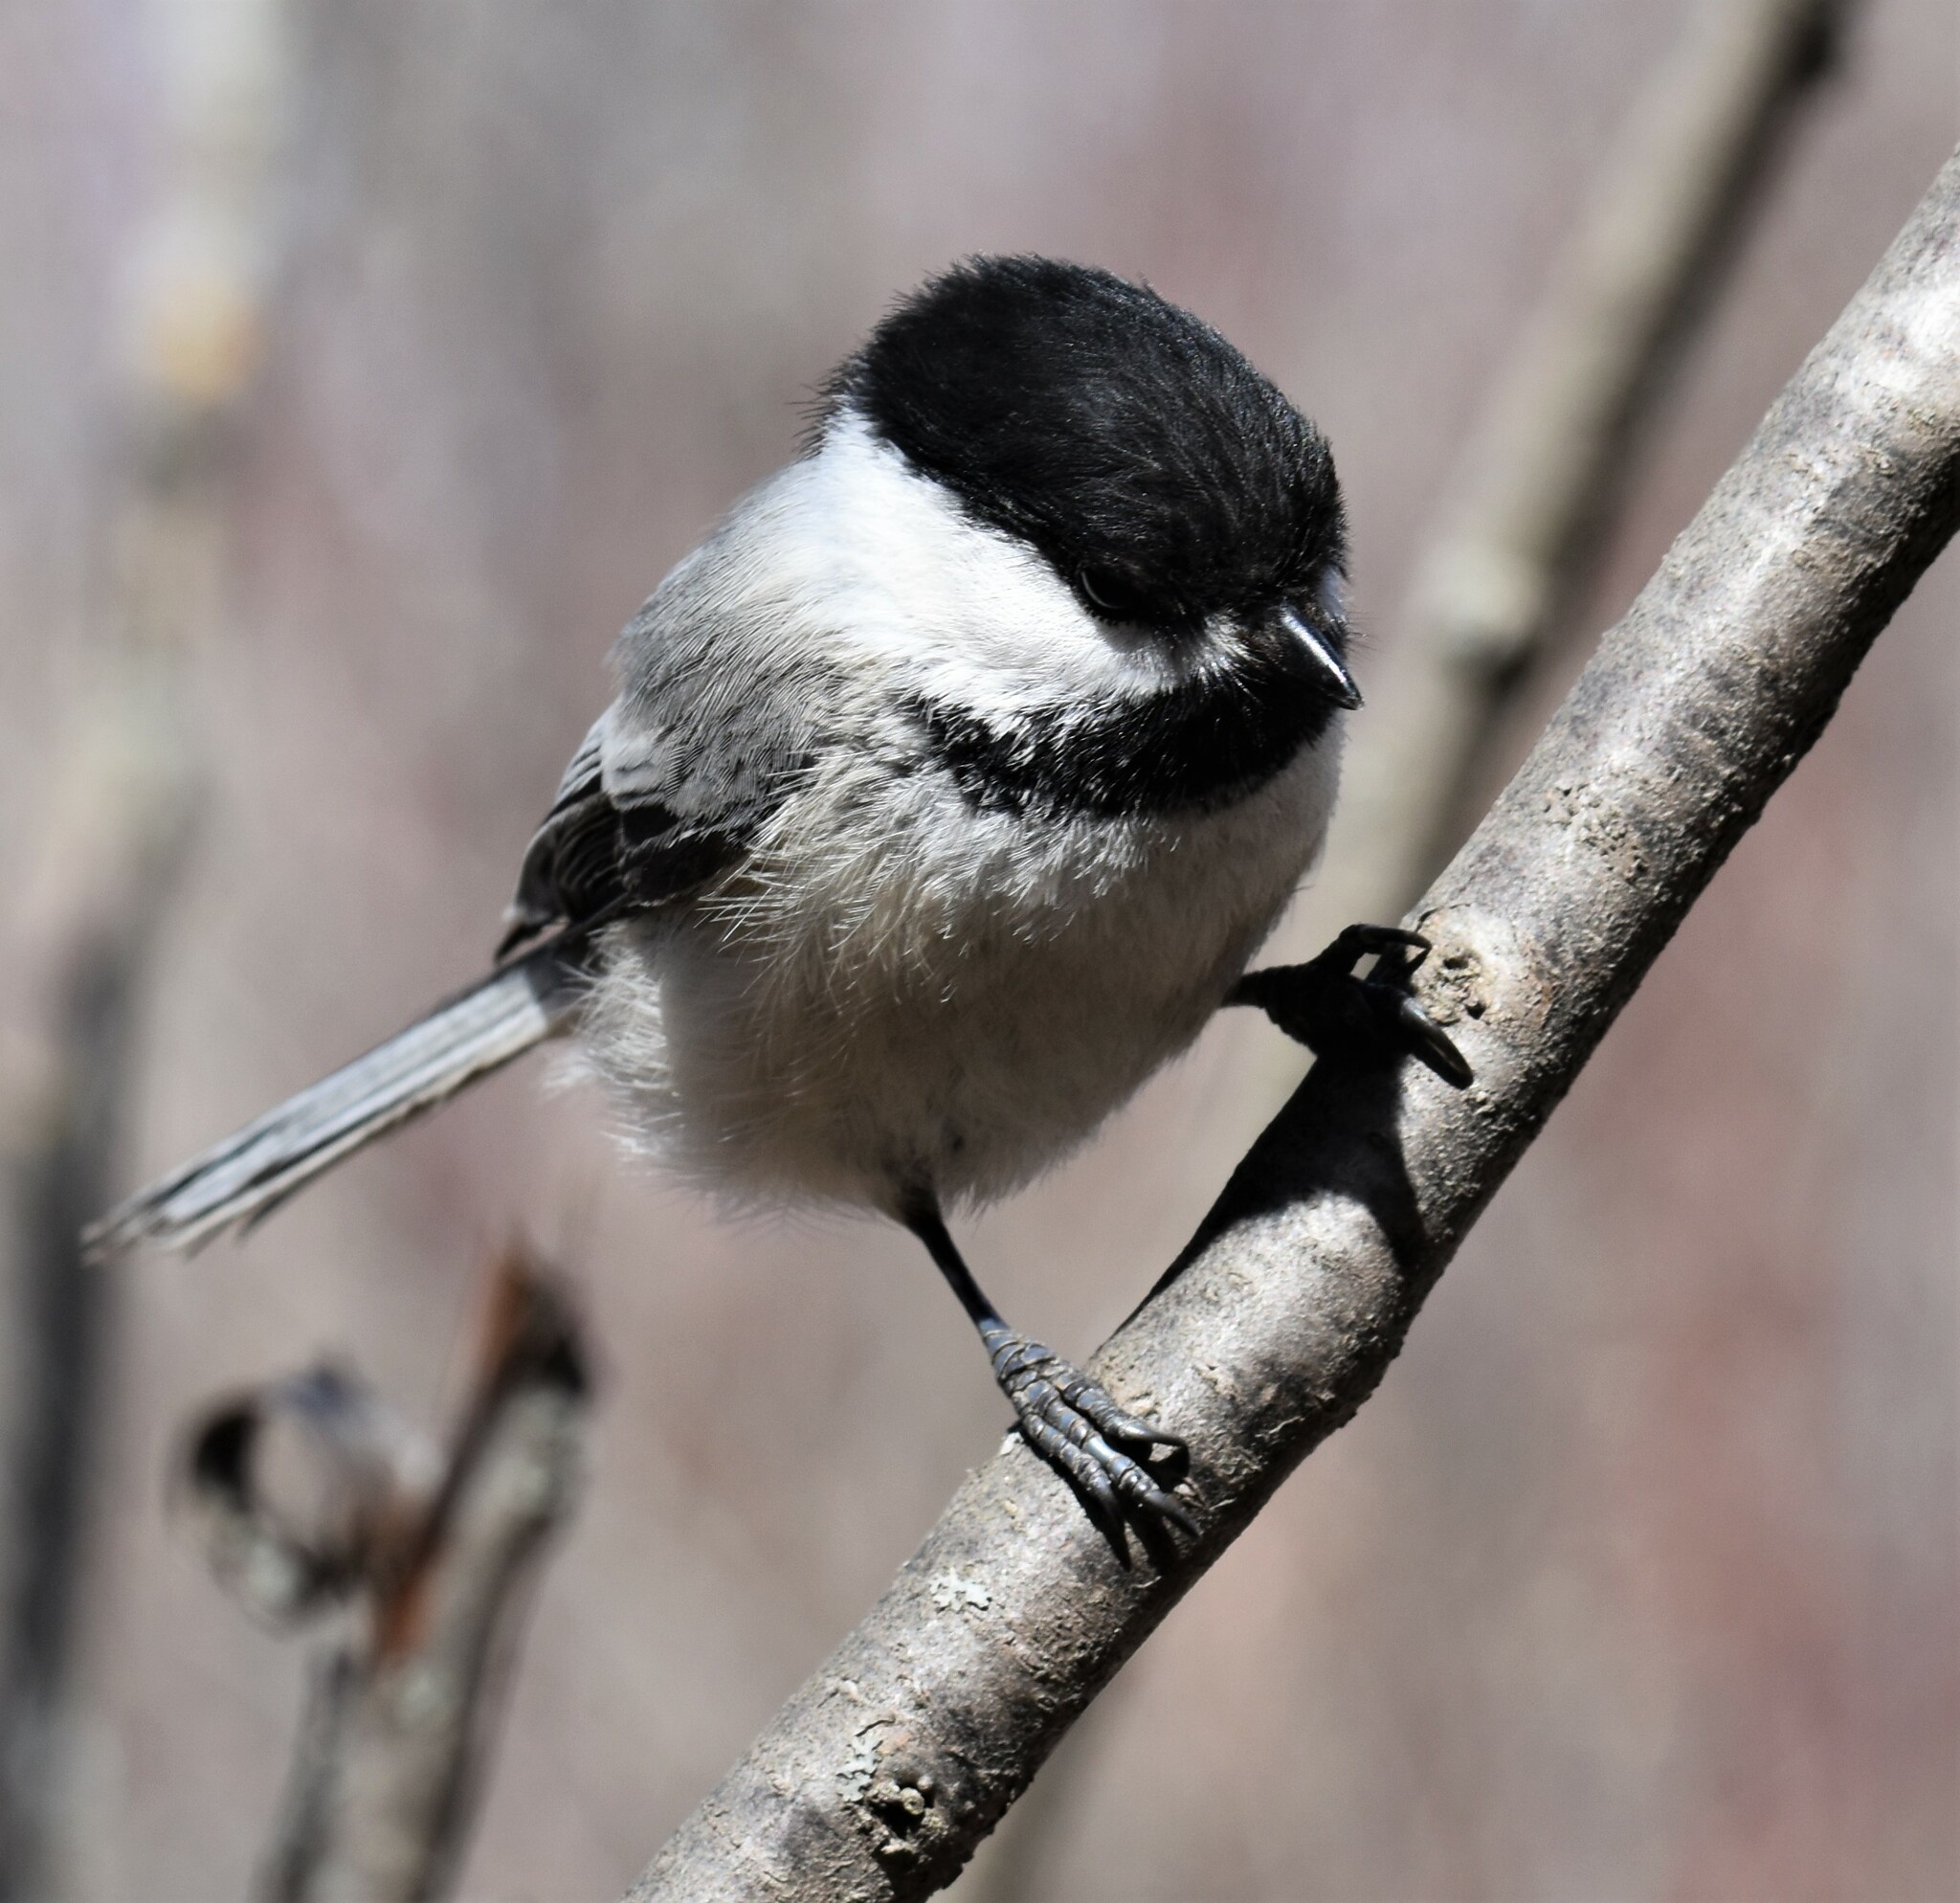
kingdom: Animalia
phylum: Chordata
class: Aves
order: Passeriformes
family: Paridae
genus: Poecile
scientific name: Poecile atricapillus
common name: Black-capped chickadee
